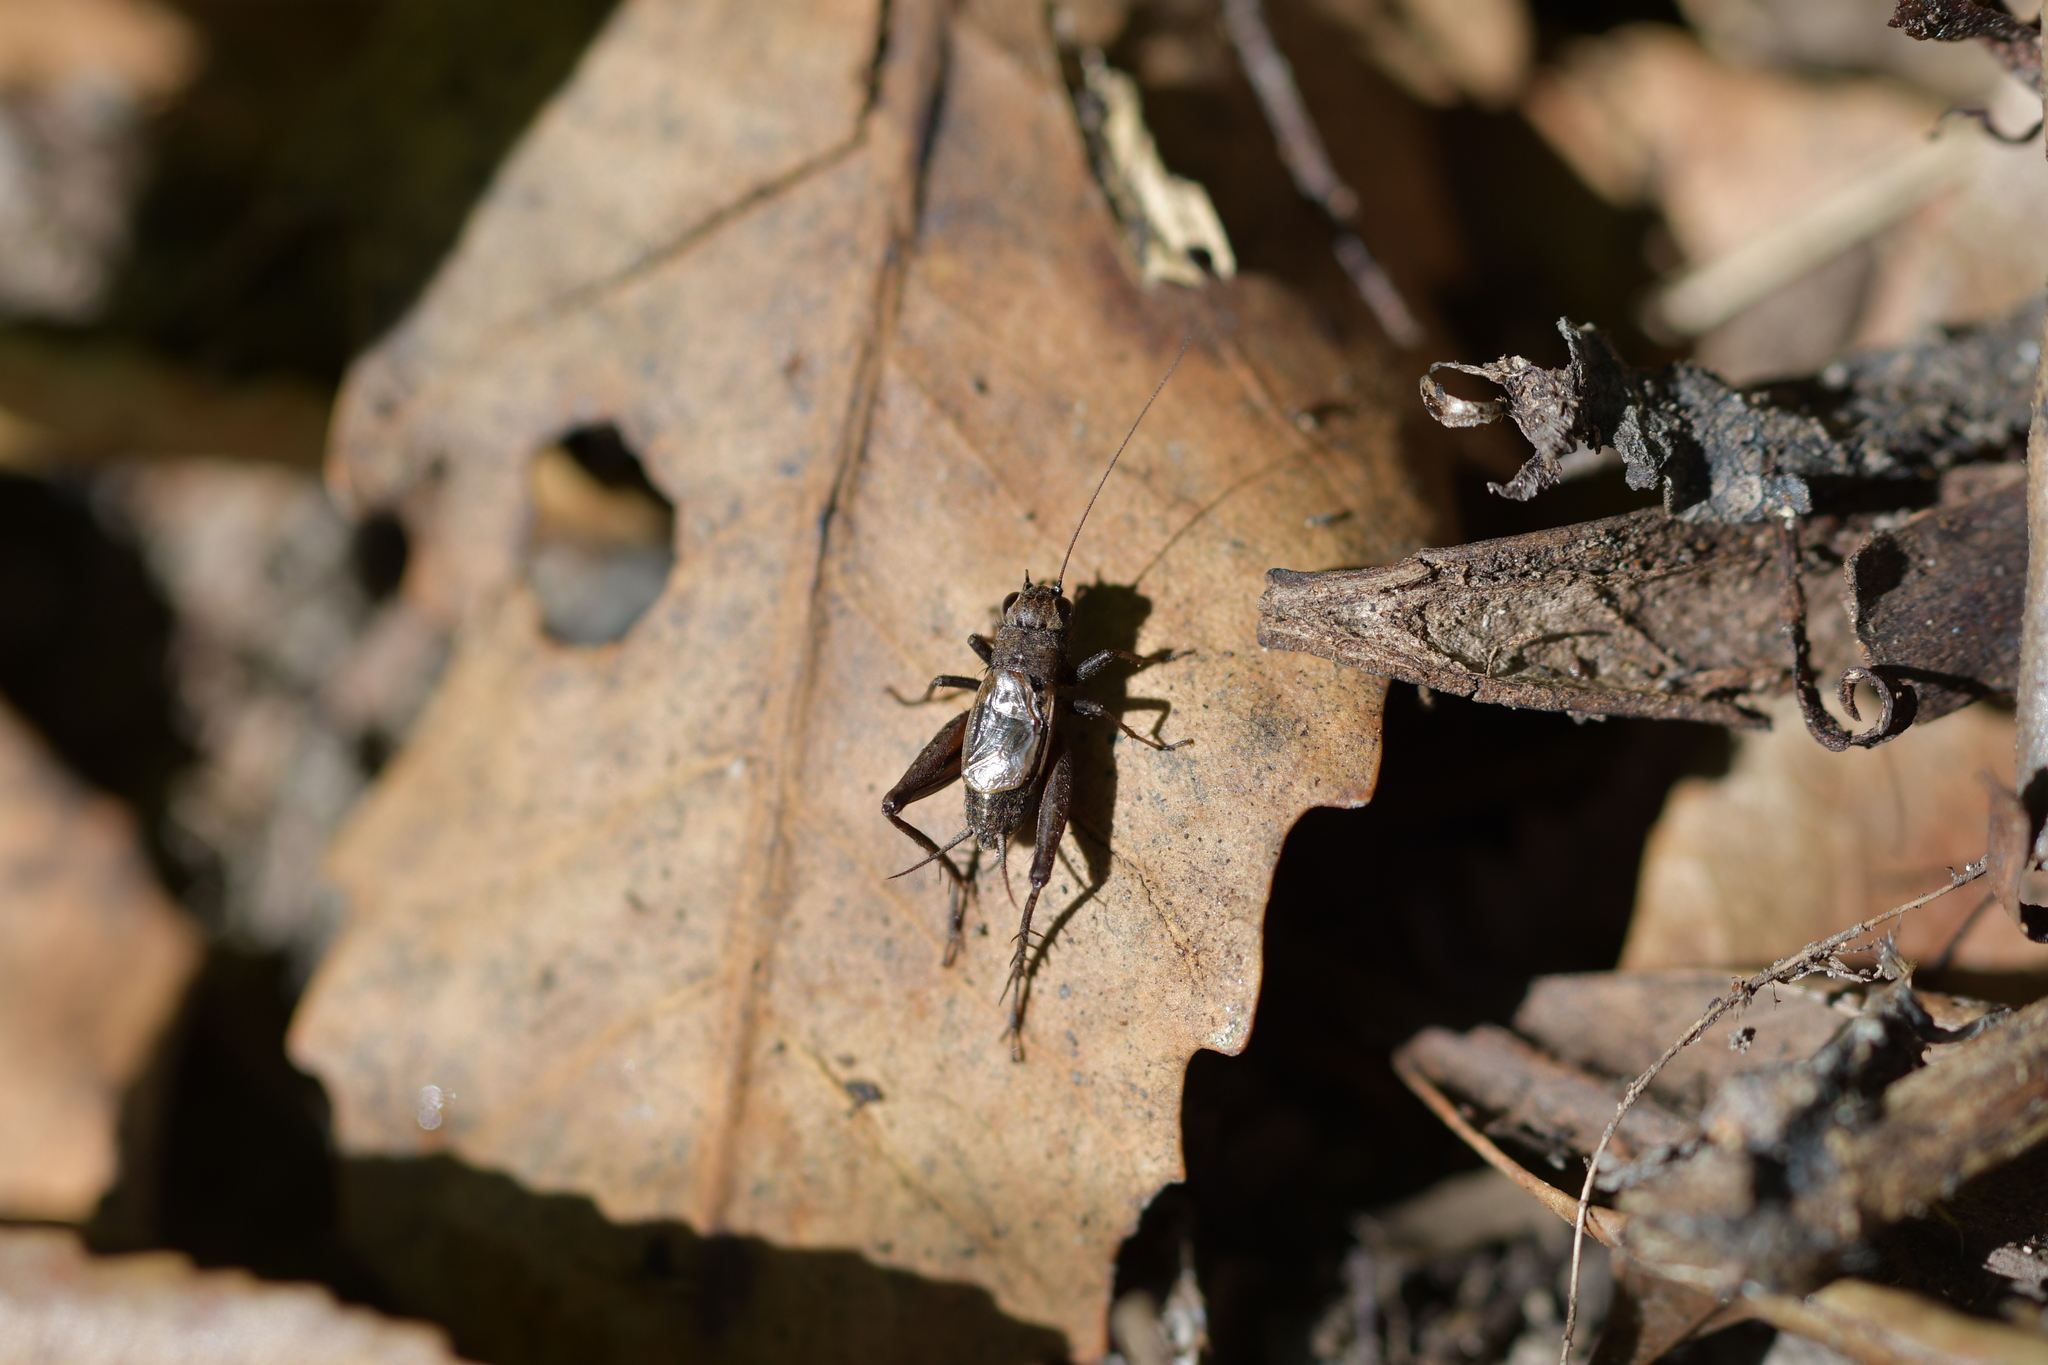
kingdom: Animalia
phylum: Arthropoda
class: Insecta
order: Orthoptera
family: Trigonidiidae
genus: Bobilla
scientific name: Bobilla nigrovus
